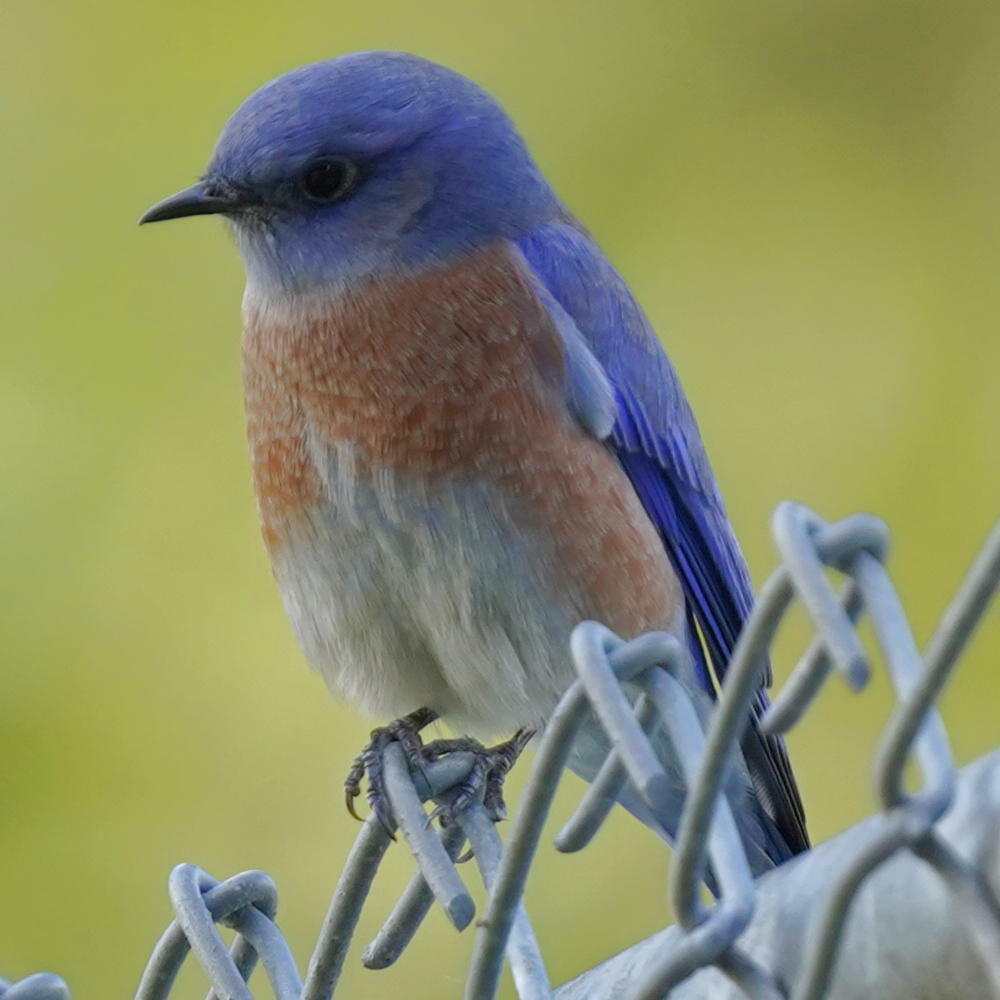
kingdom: Animalia
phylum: Chordata
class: Aves
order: Passeriformes
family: Turdidae
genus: Sialia
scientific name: Sialia mexicana
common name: Western bluebird
